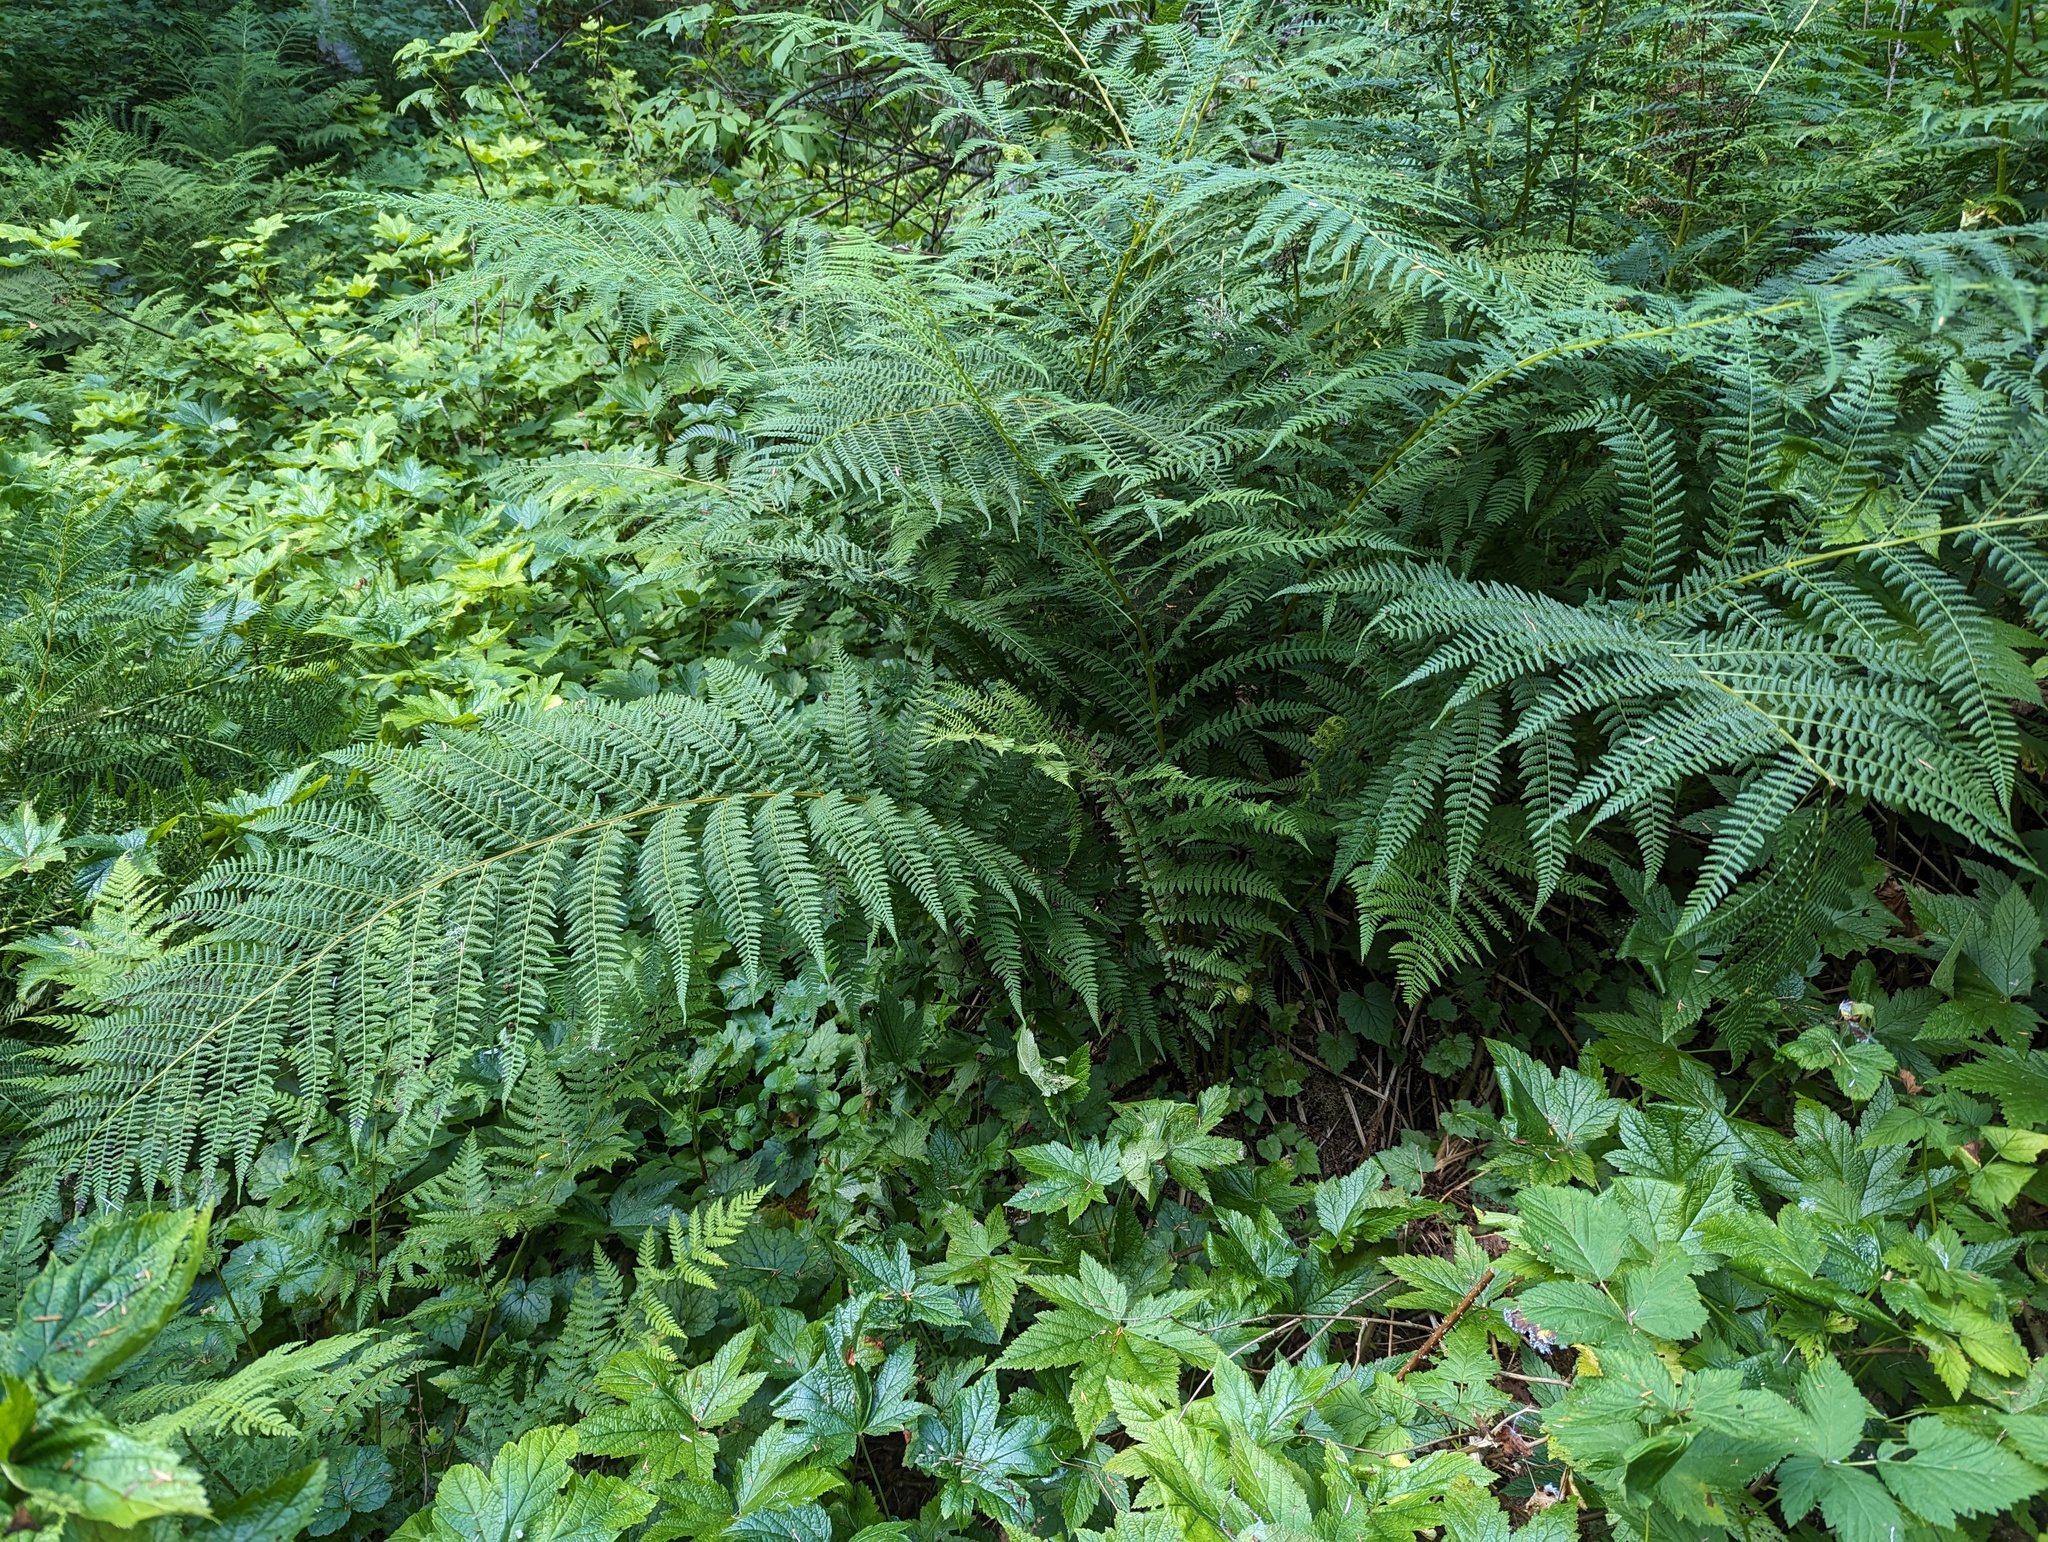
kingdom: Plantae
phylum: Tracheophyta
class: Polypodiopsida
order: Polypodiales
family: Athyriaceae
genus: Athyrium
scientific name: Athyrium cyclosorum
